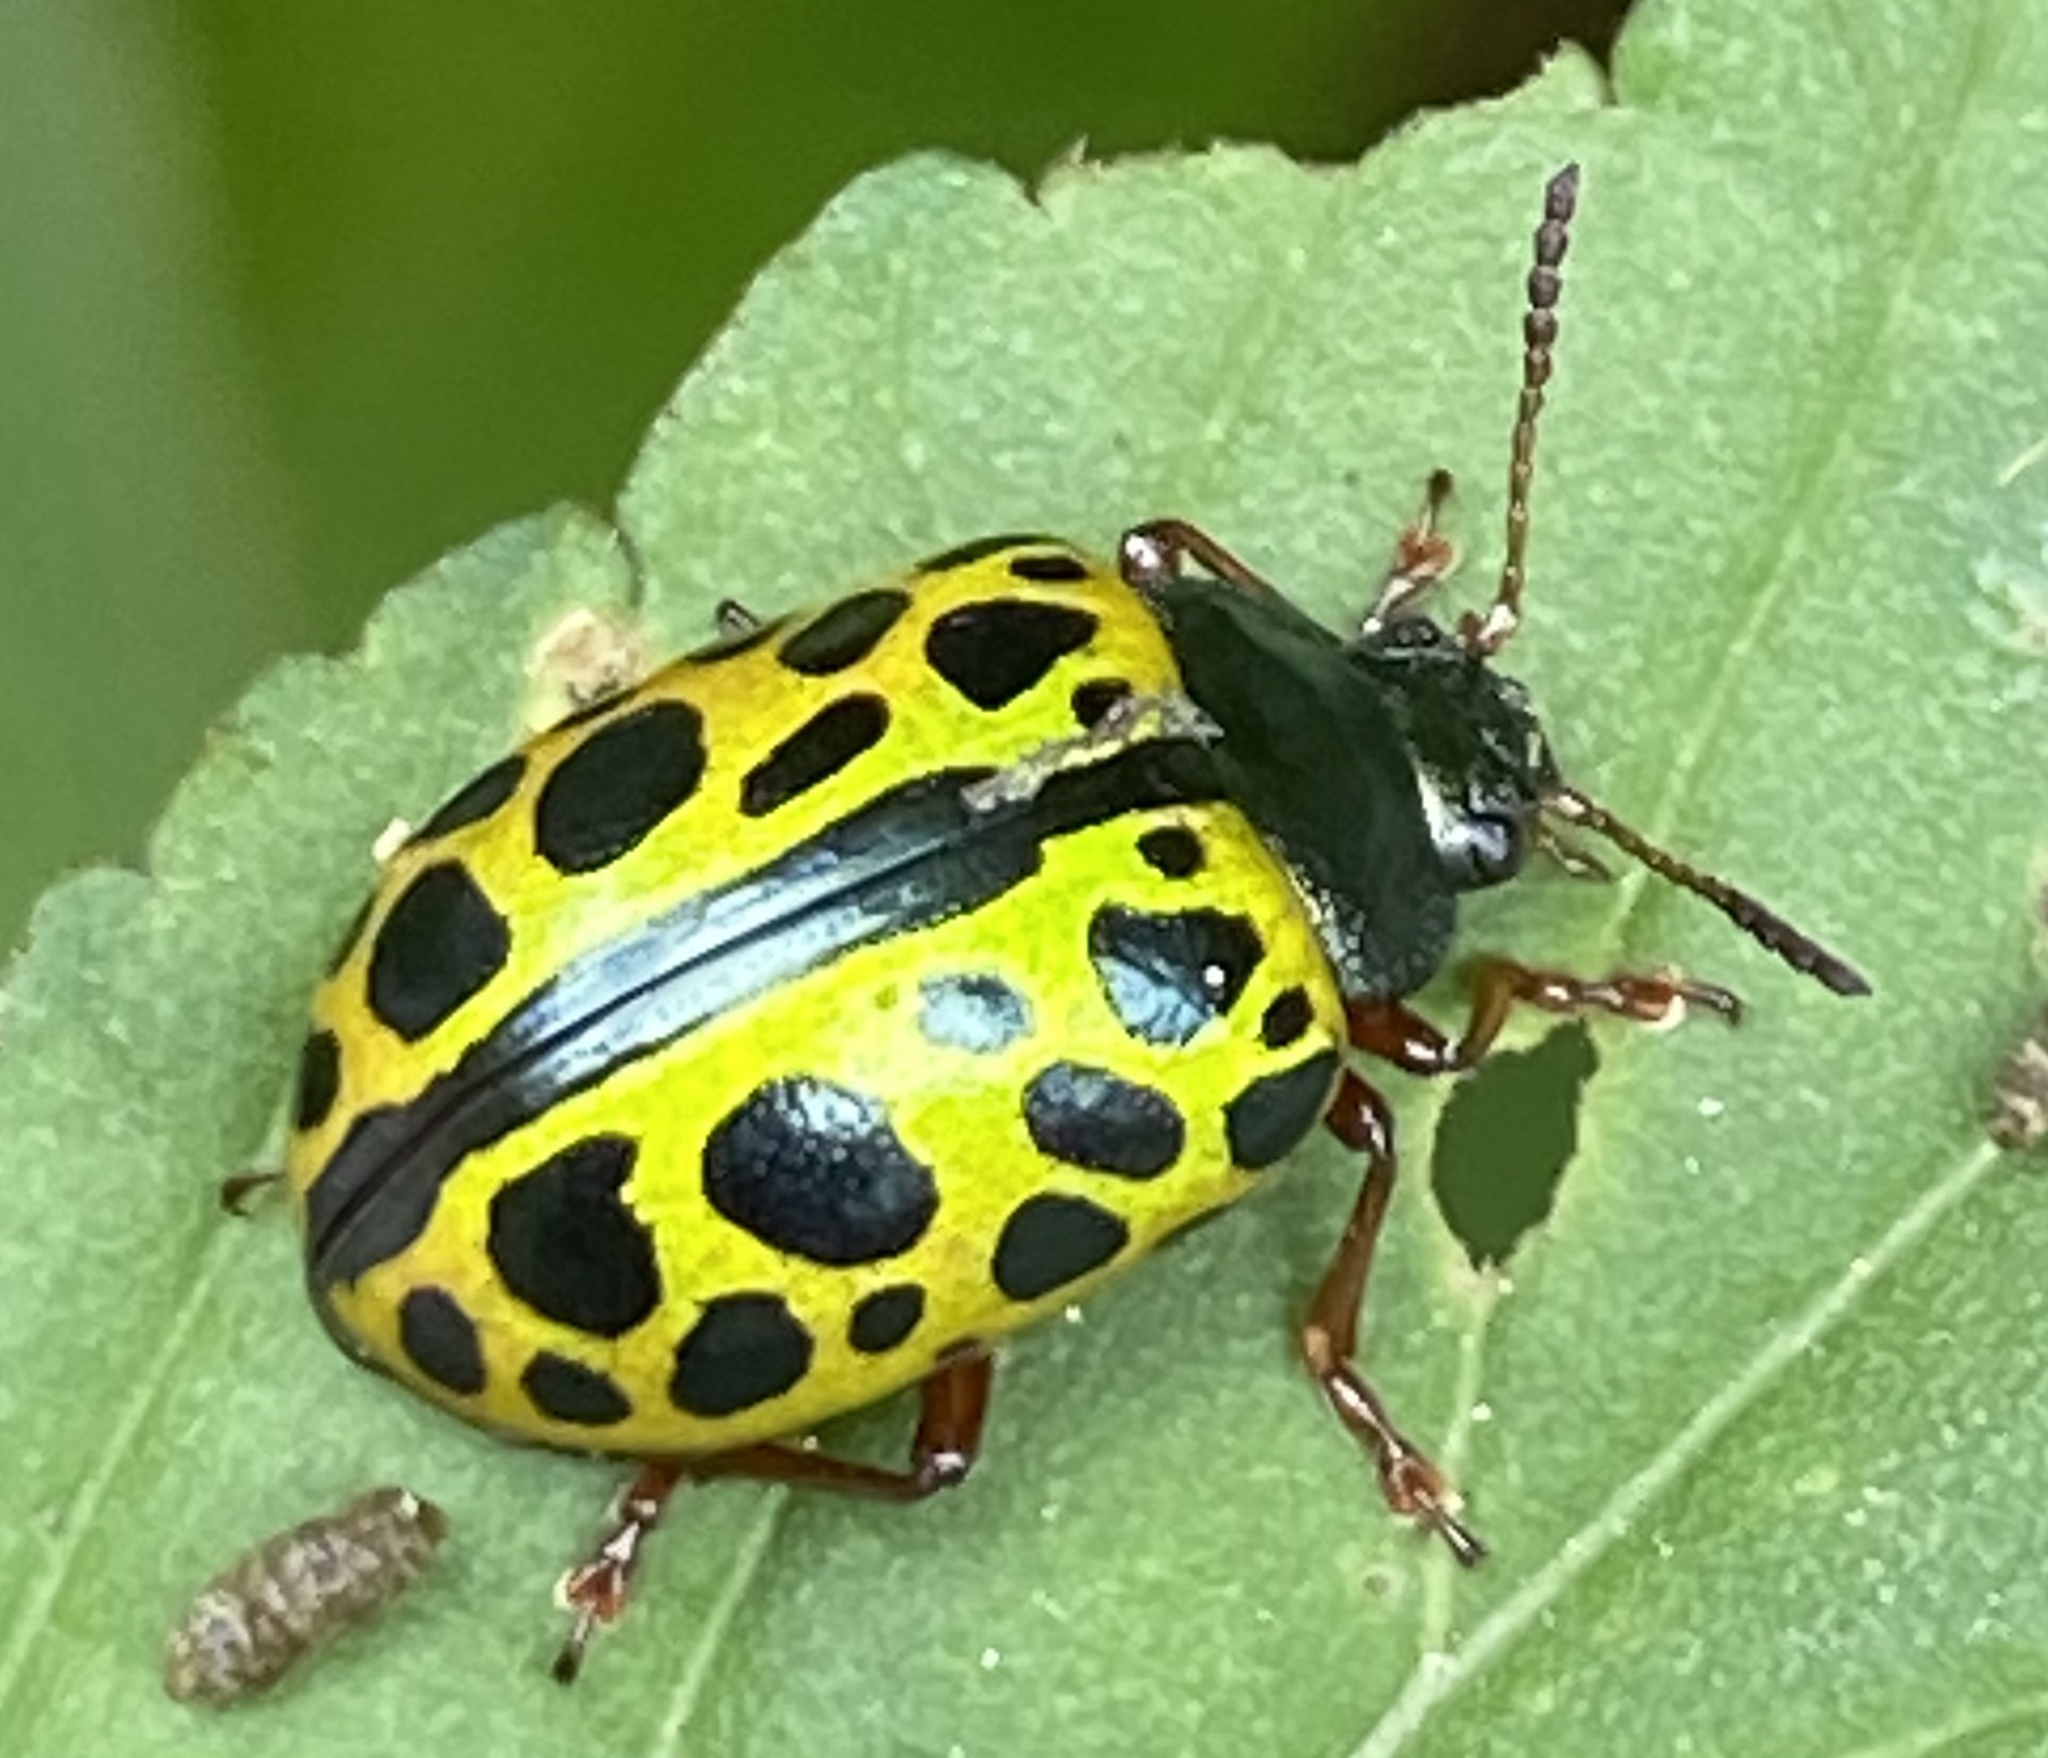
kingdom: Animalia
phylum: Arthropoda
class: Insecta
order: Coleoptera
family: Chrysomelidae
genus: Calligrapha
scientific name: Calligrapha polyspila
